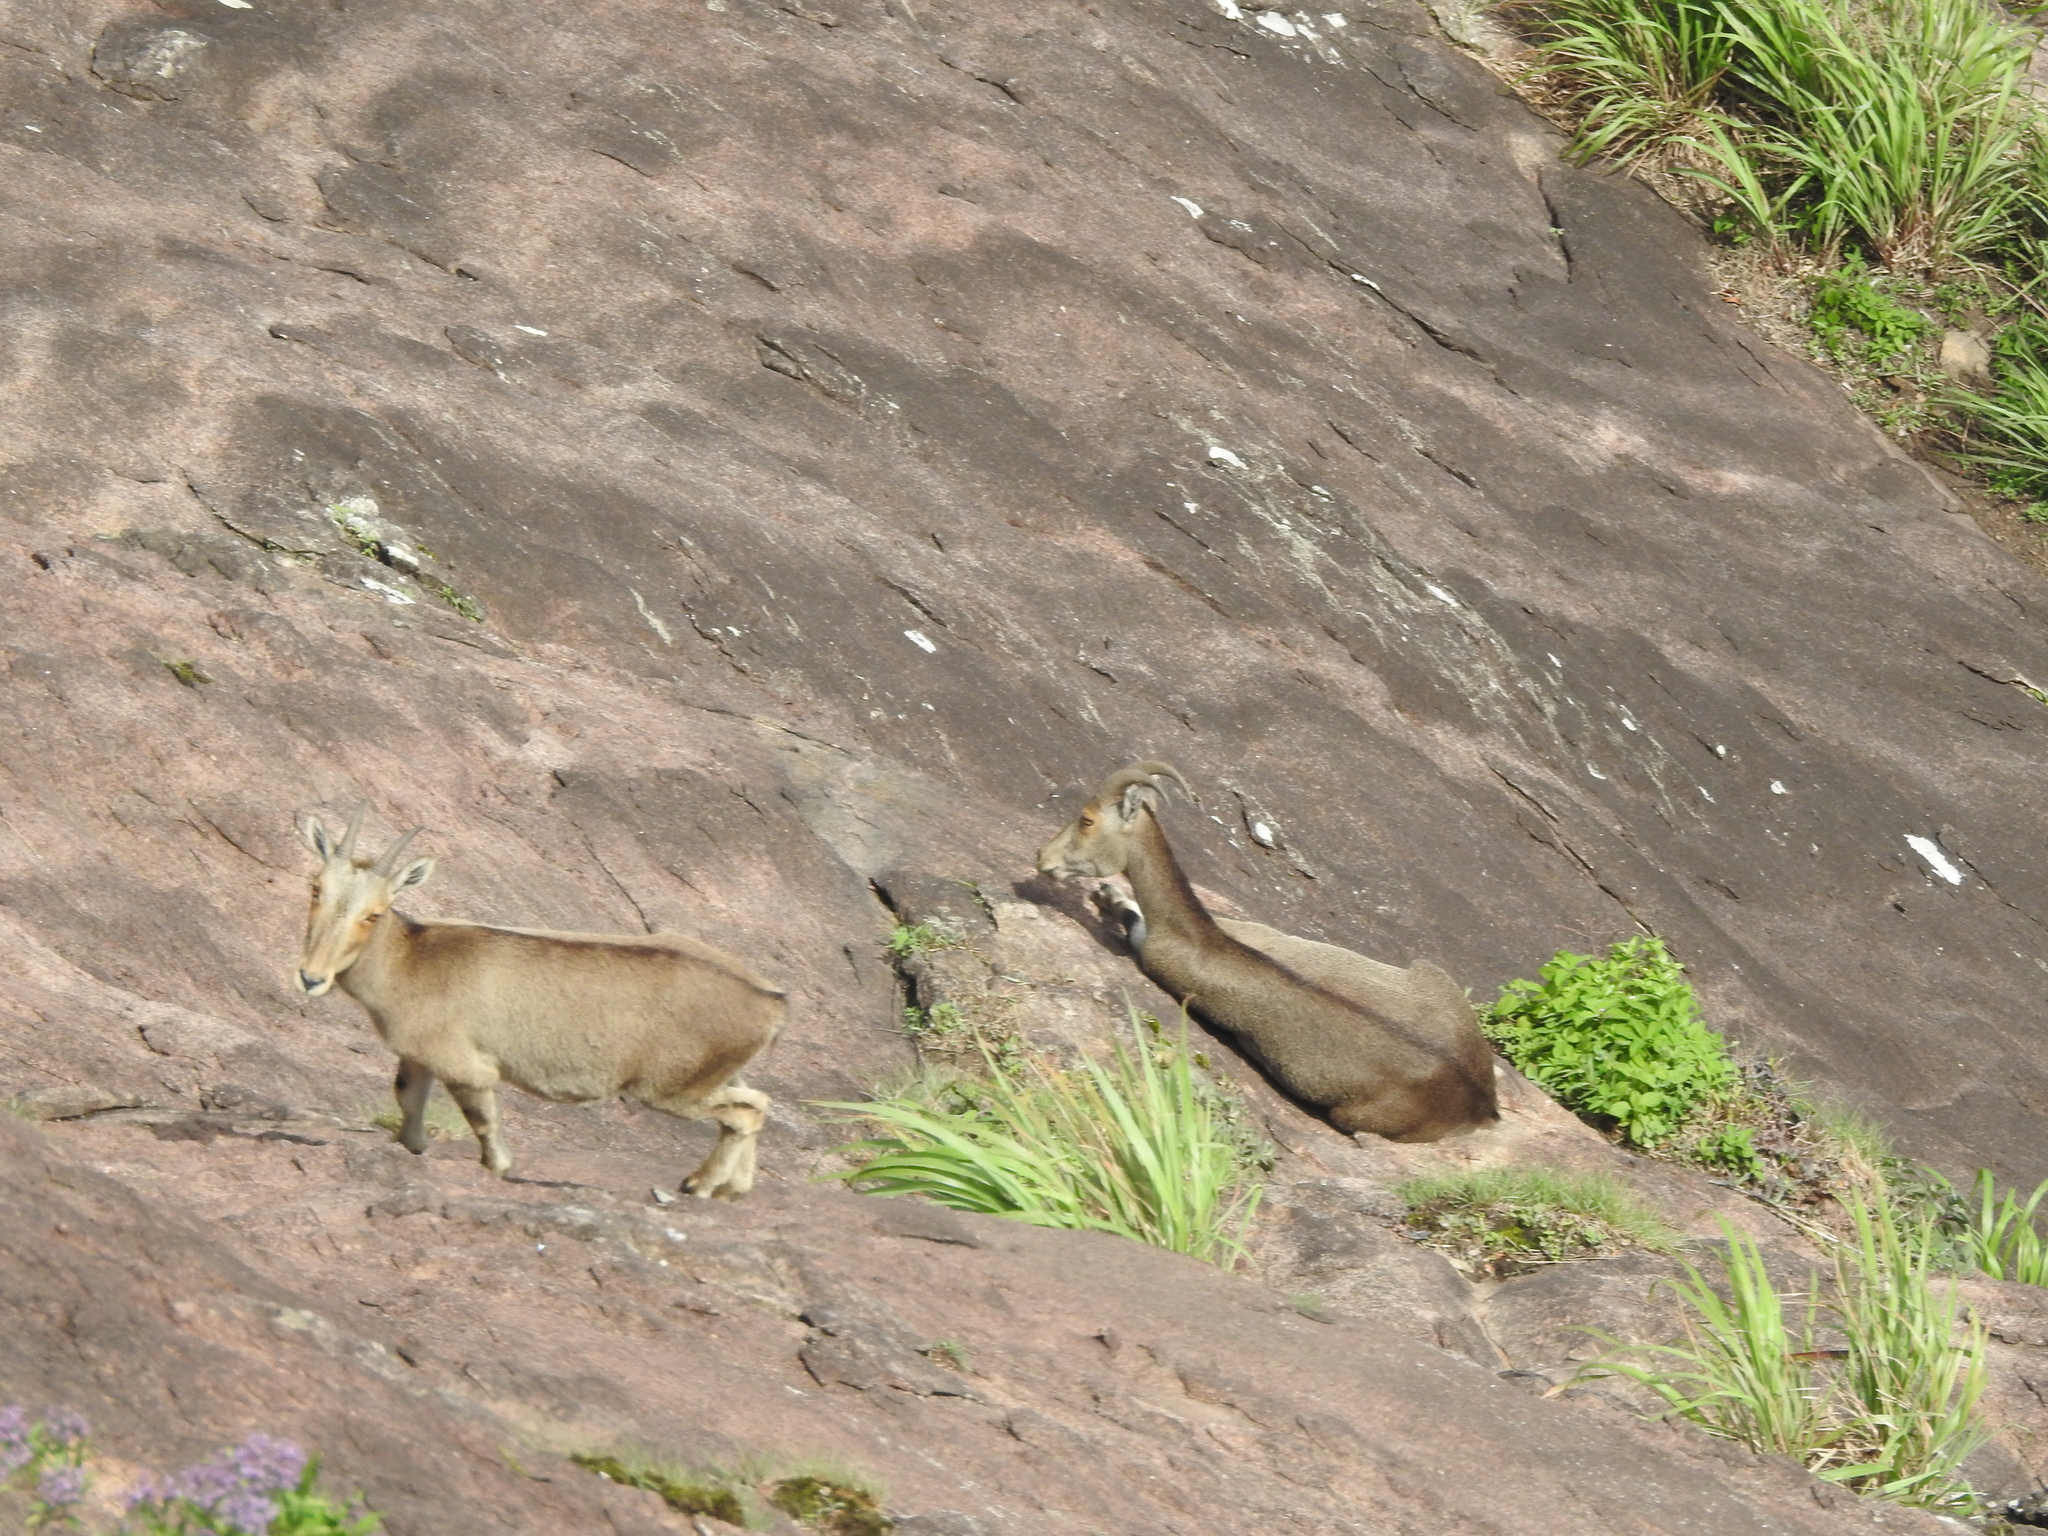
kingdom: Animalia
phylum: Chordata
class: Mammalia
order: Artiodactyla
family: Bovidae
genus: Hemitragus
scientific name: Hemitragus hylocrius
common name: Nilgiri tahr
